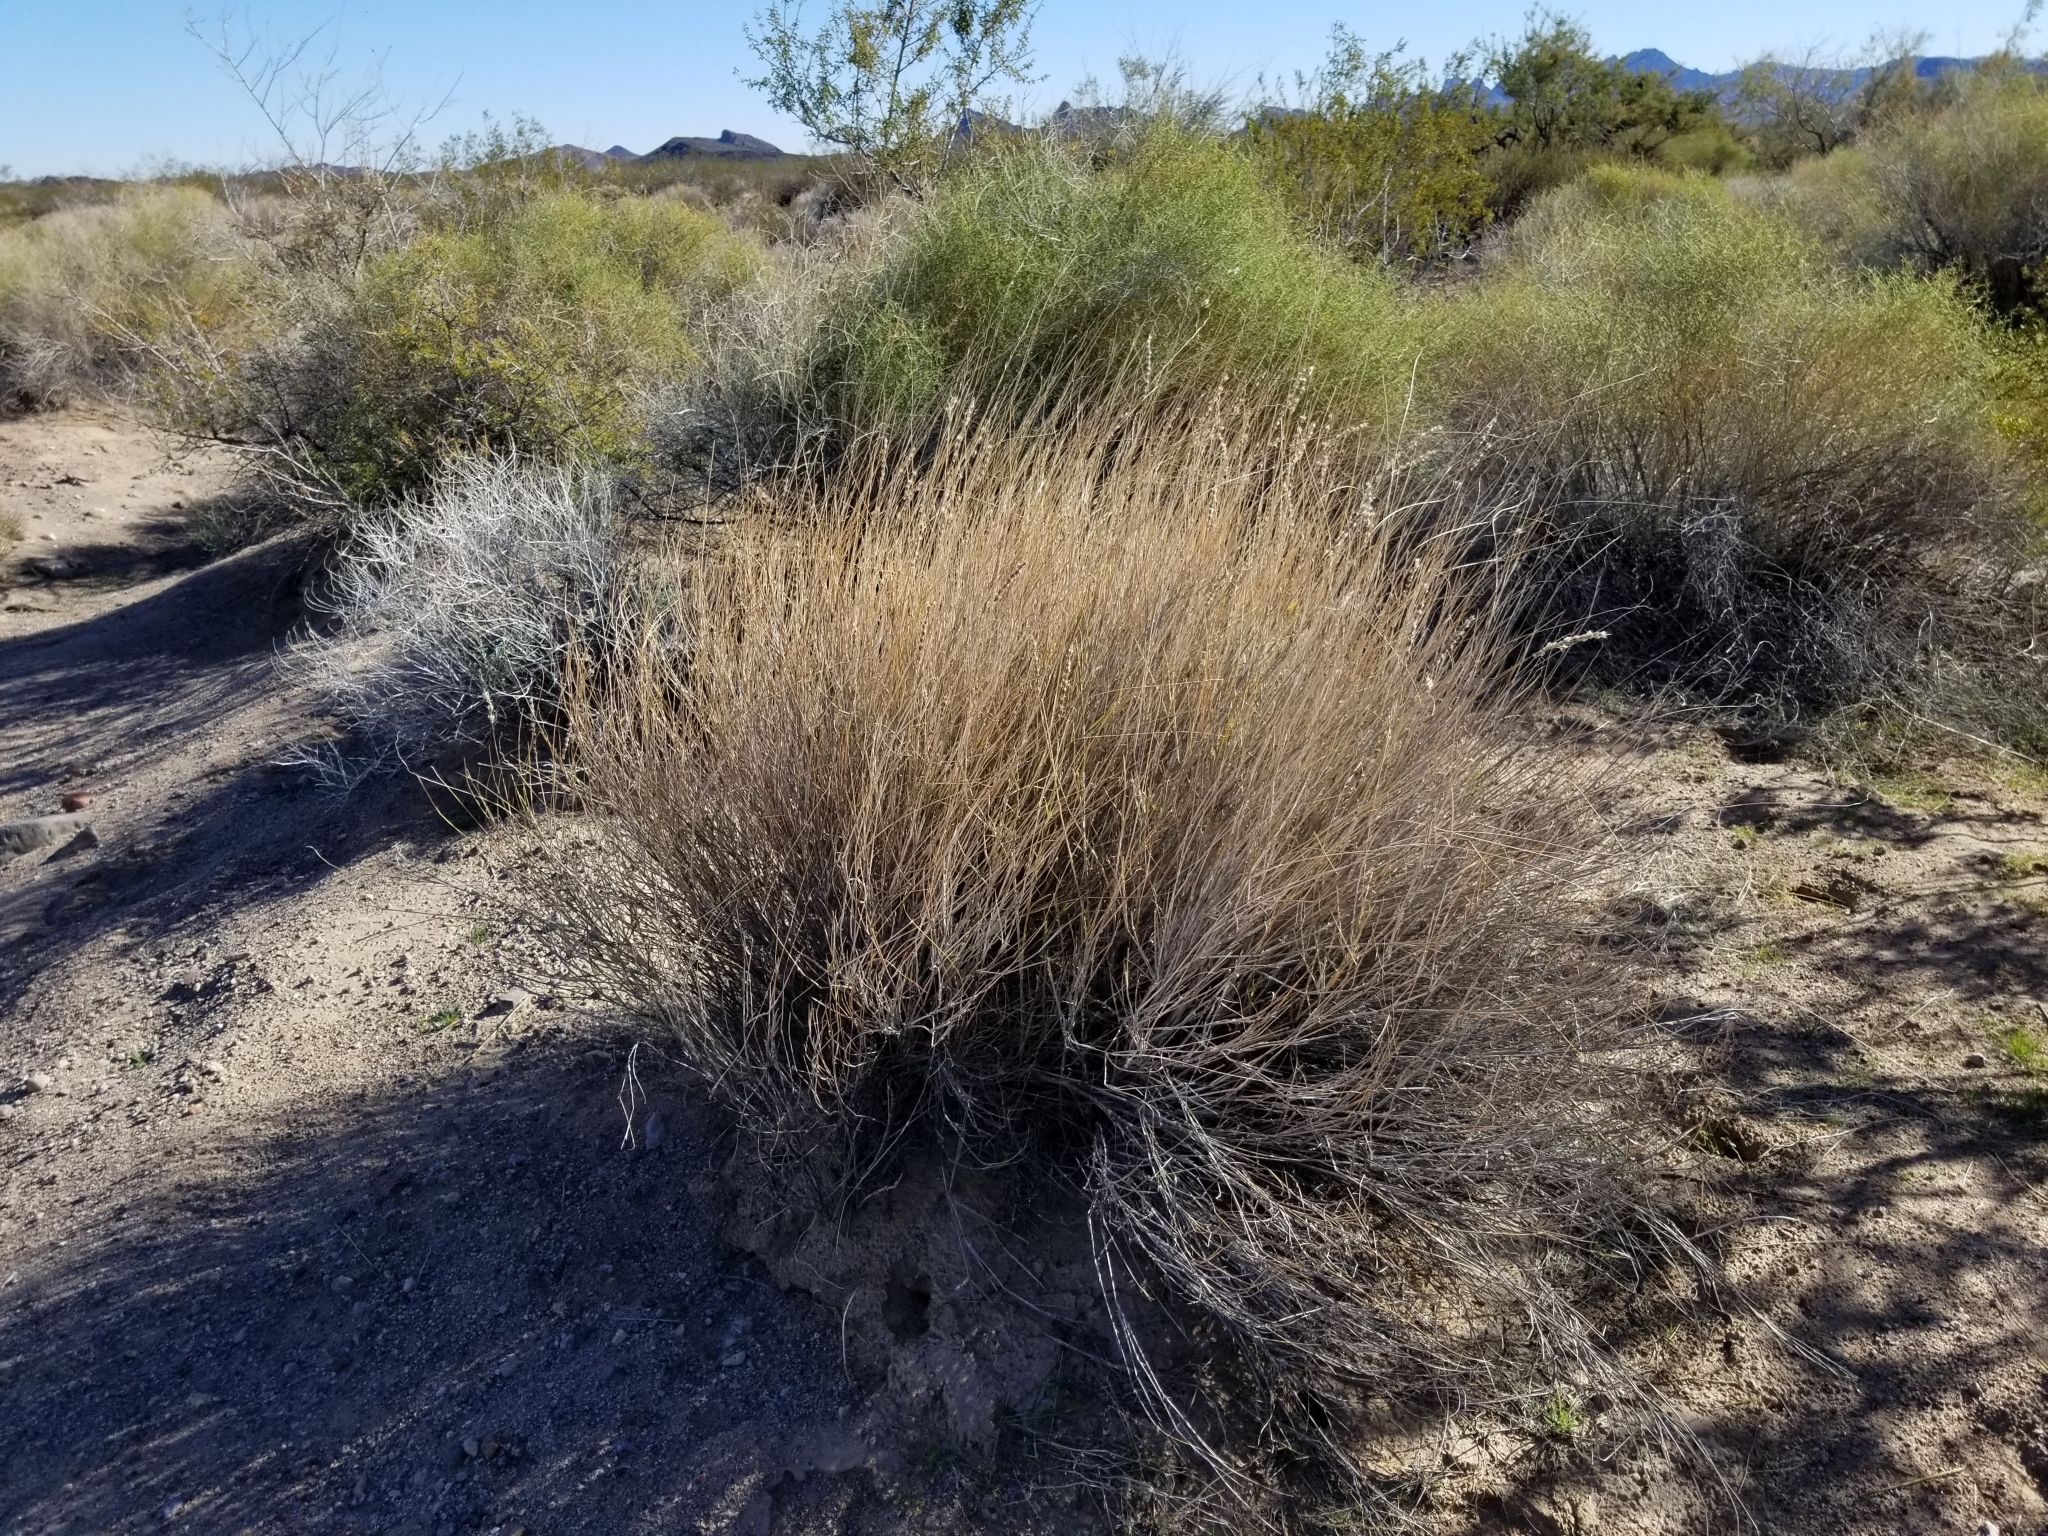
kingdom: Plantae
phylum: Tracheophyta
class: Liliopsida
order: Poales
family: Poaceae
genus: Hilaria
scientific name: Hilaria rigida
